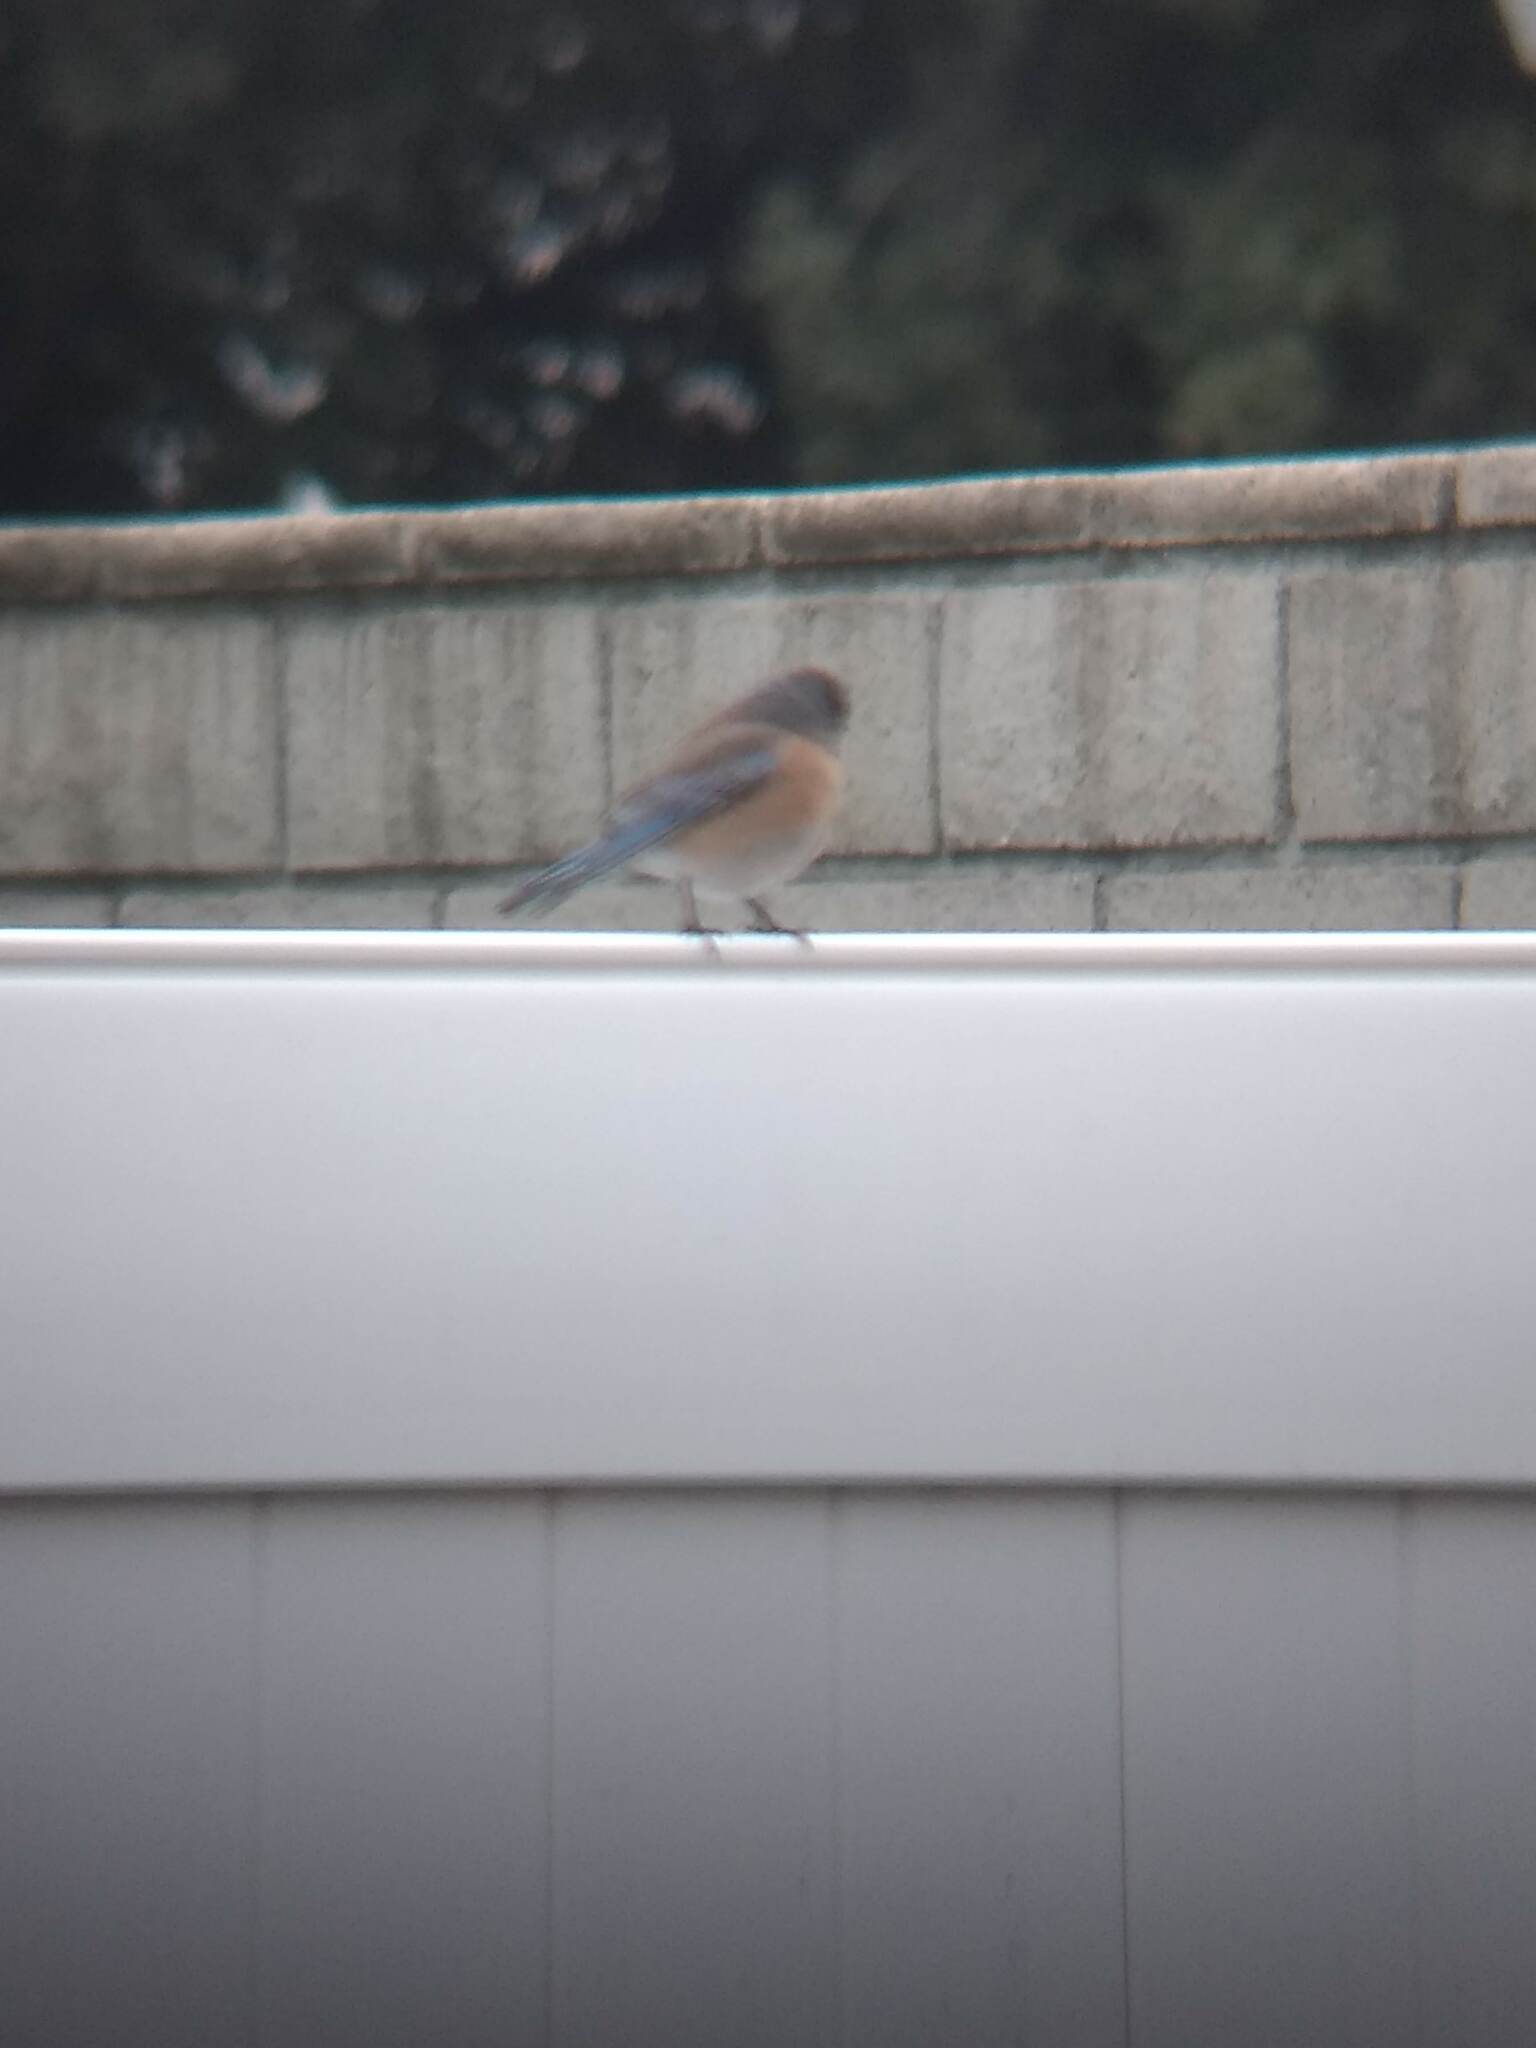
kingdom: Animalia
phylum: Chordata
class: Aves
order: Passeriformes
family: Turdidae
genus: Sialia
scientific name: Sialia mexicana
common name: Western bluebird
